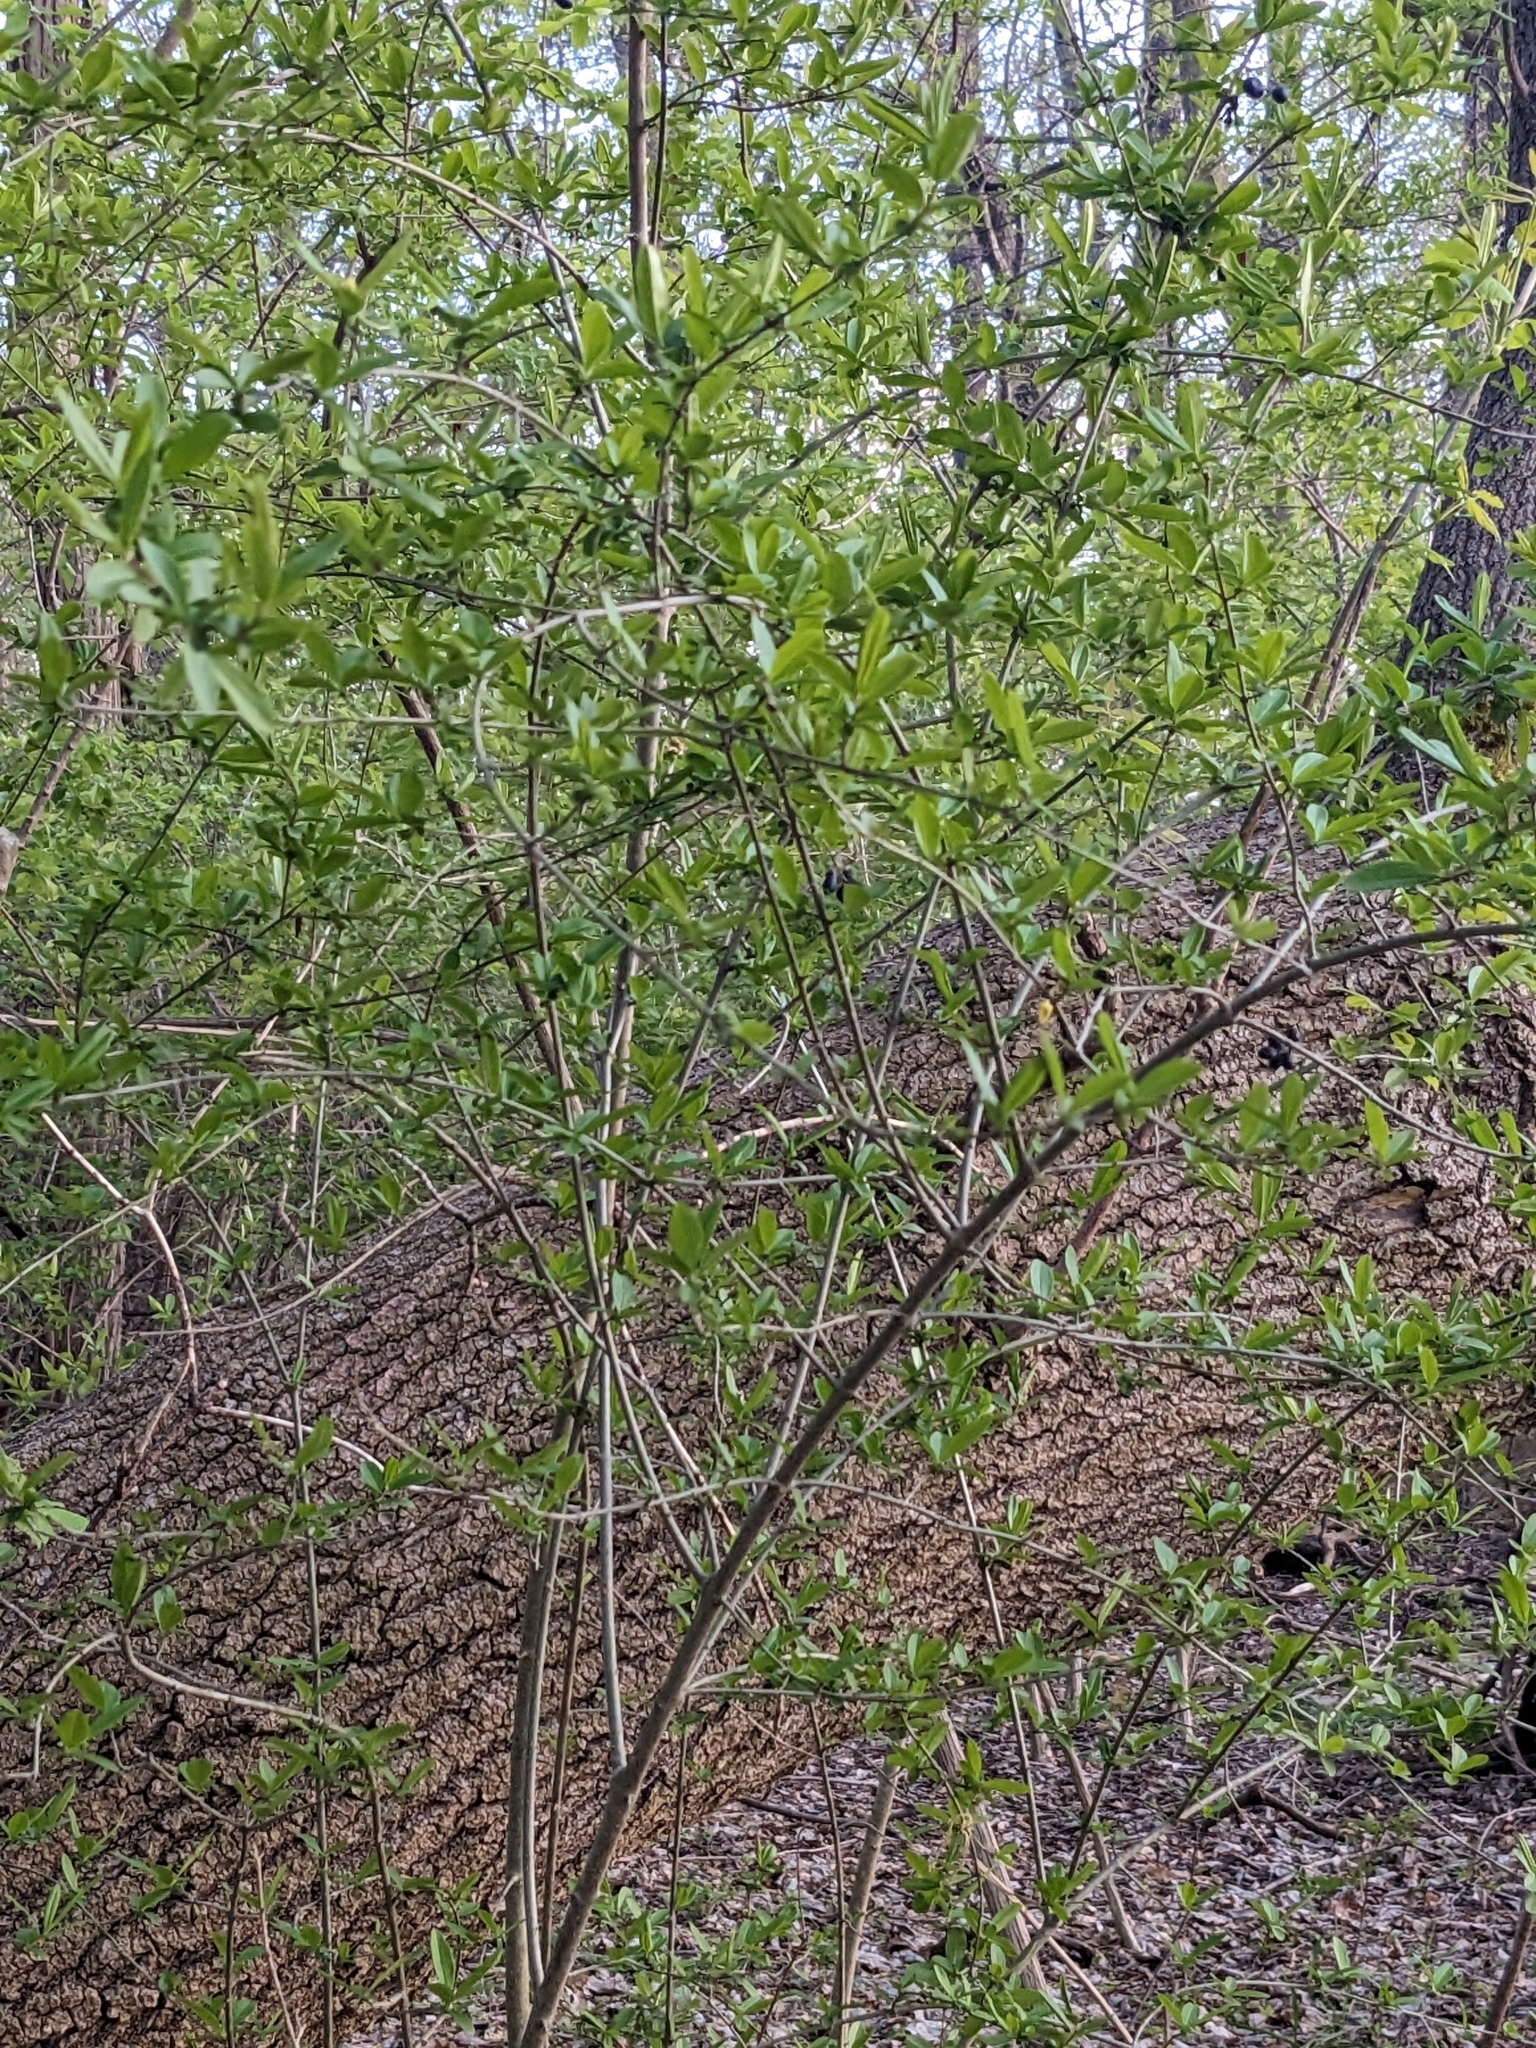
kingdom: Plantae
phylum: Tracheophyta
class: Magnoliopsida
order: Lamiales
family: Oleaceae
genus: Ligustrum
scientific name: Ligustrum obtusifolium
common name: Border privet
